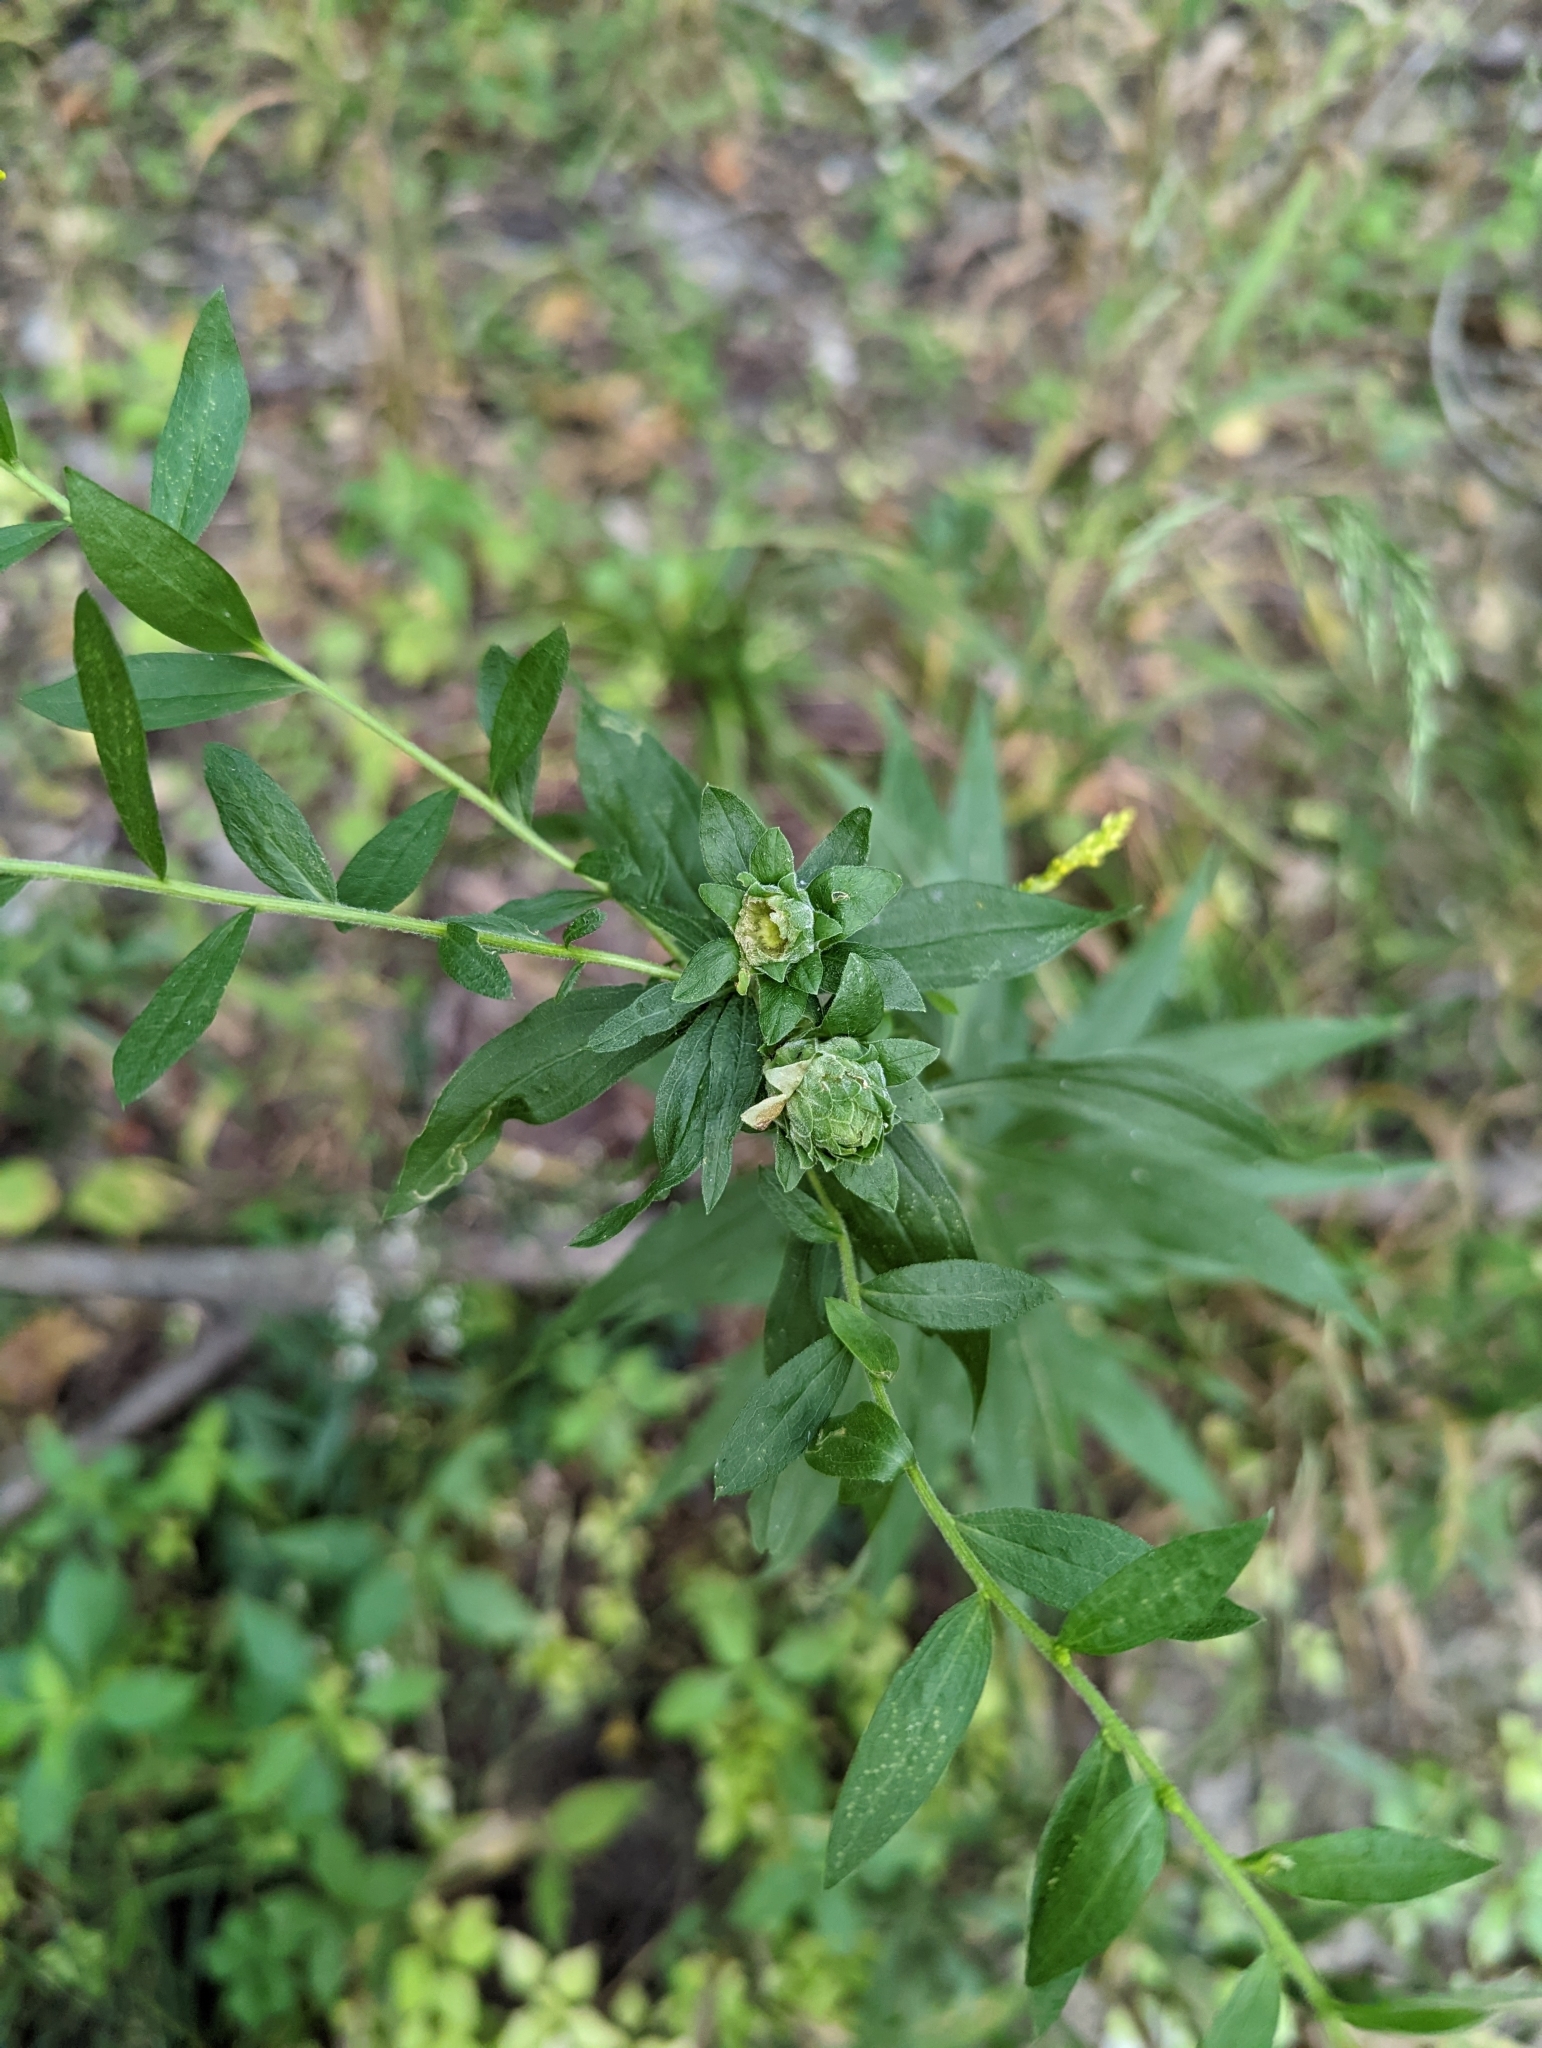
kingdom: Animalia
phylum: Arthropoda
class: Insecta
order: Diptera
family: Tephritidae
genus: Procecidochares
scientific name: Procecidochares atra
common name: Goldenrod brussels sprout gall fly
